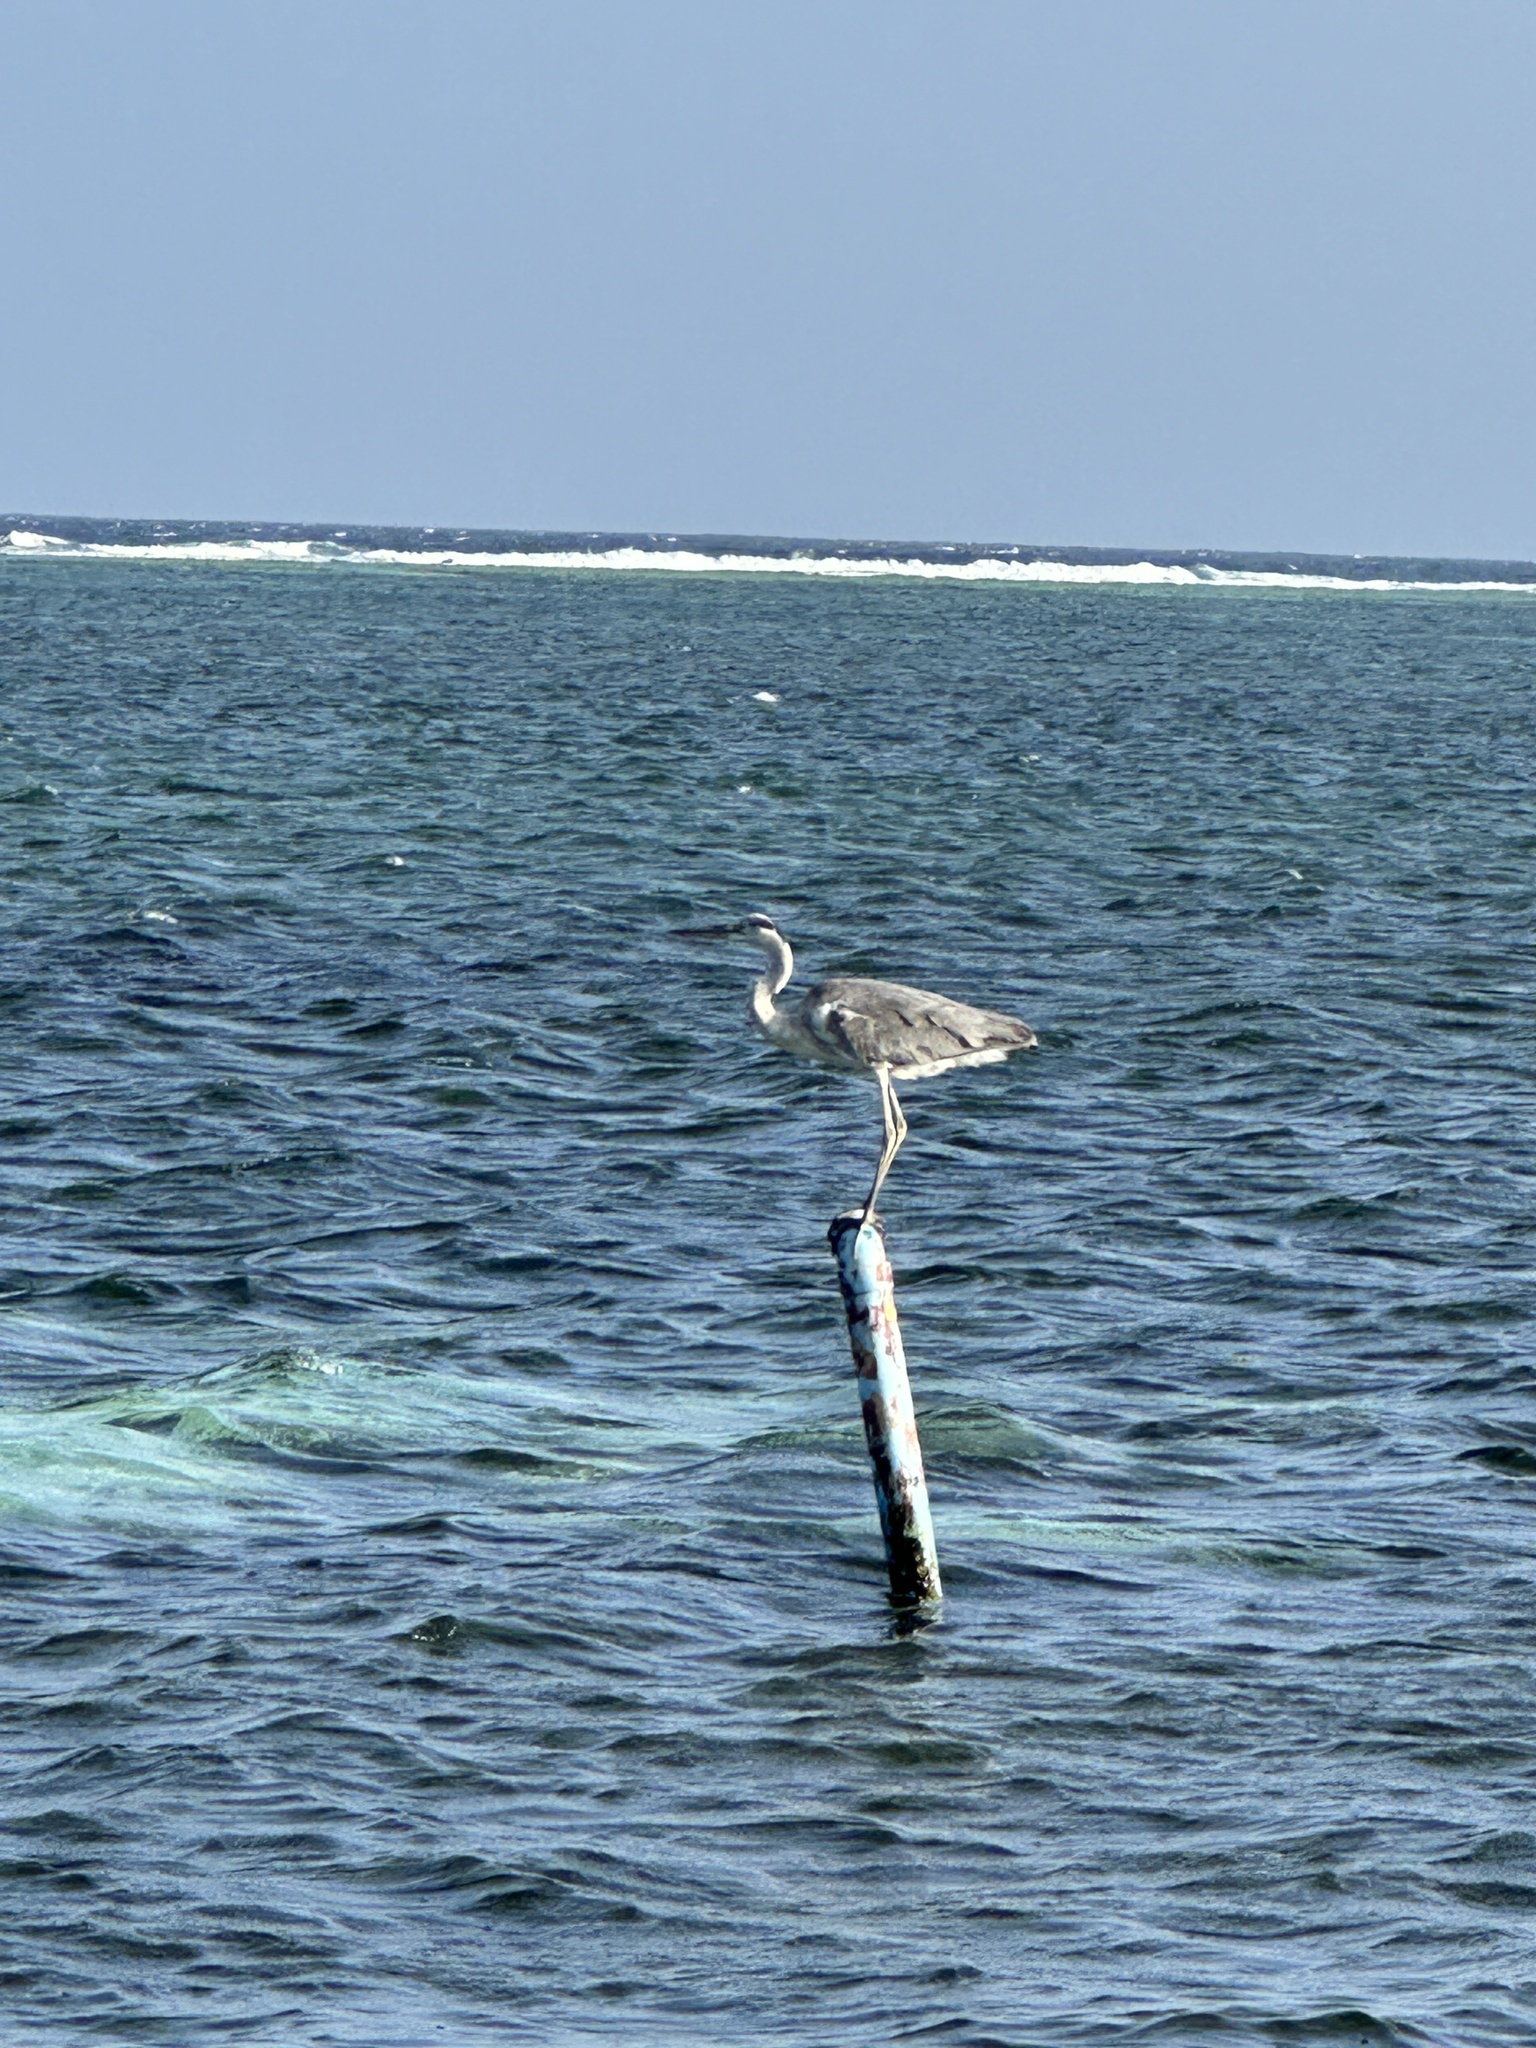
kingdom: Animalia
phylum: Chordata
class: Aves
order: Pelecaniformes
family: Ardeidae
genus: Ardea
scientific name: Ardea cinerea
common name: Grey heron
